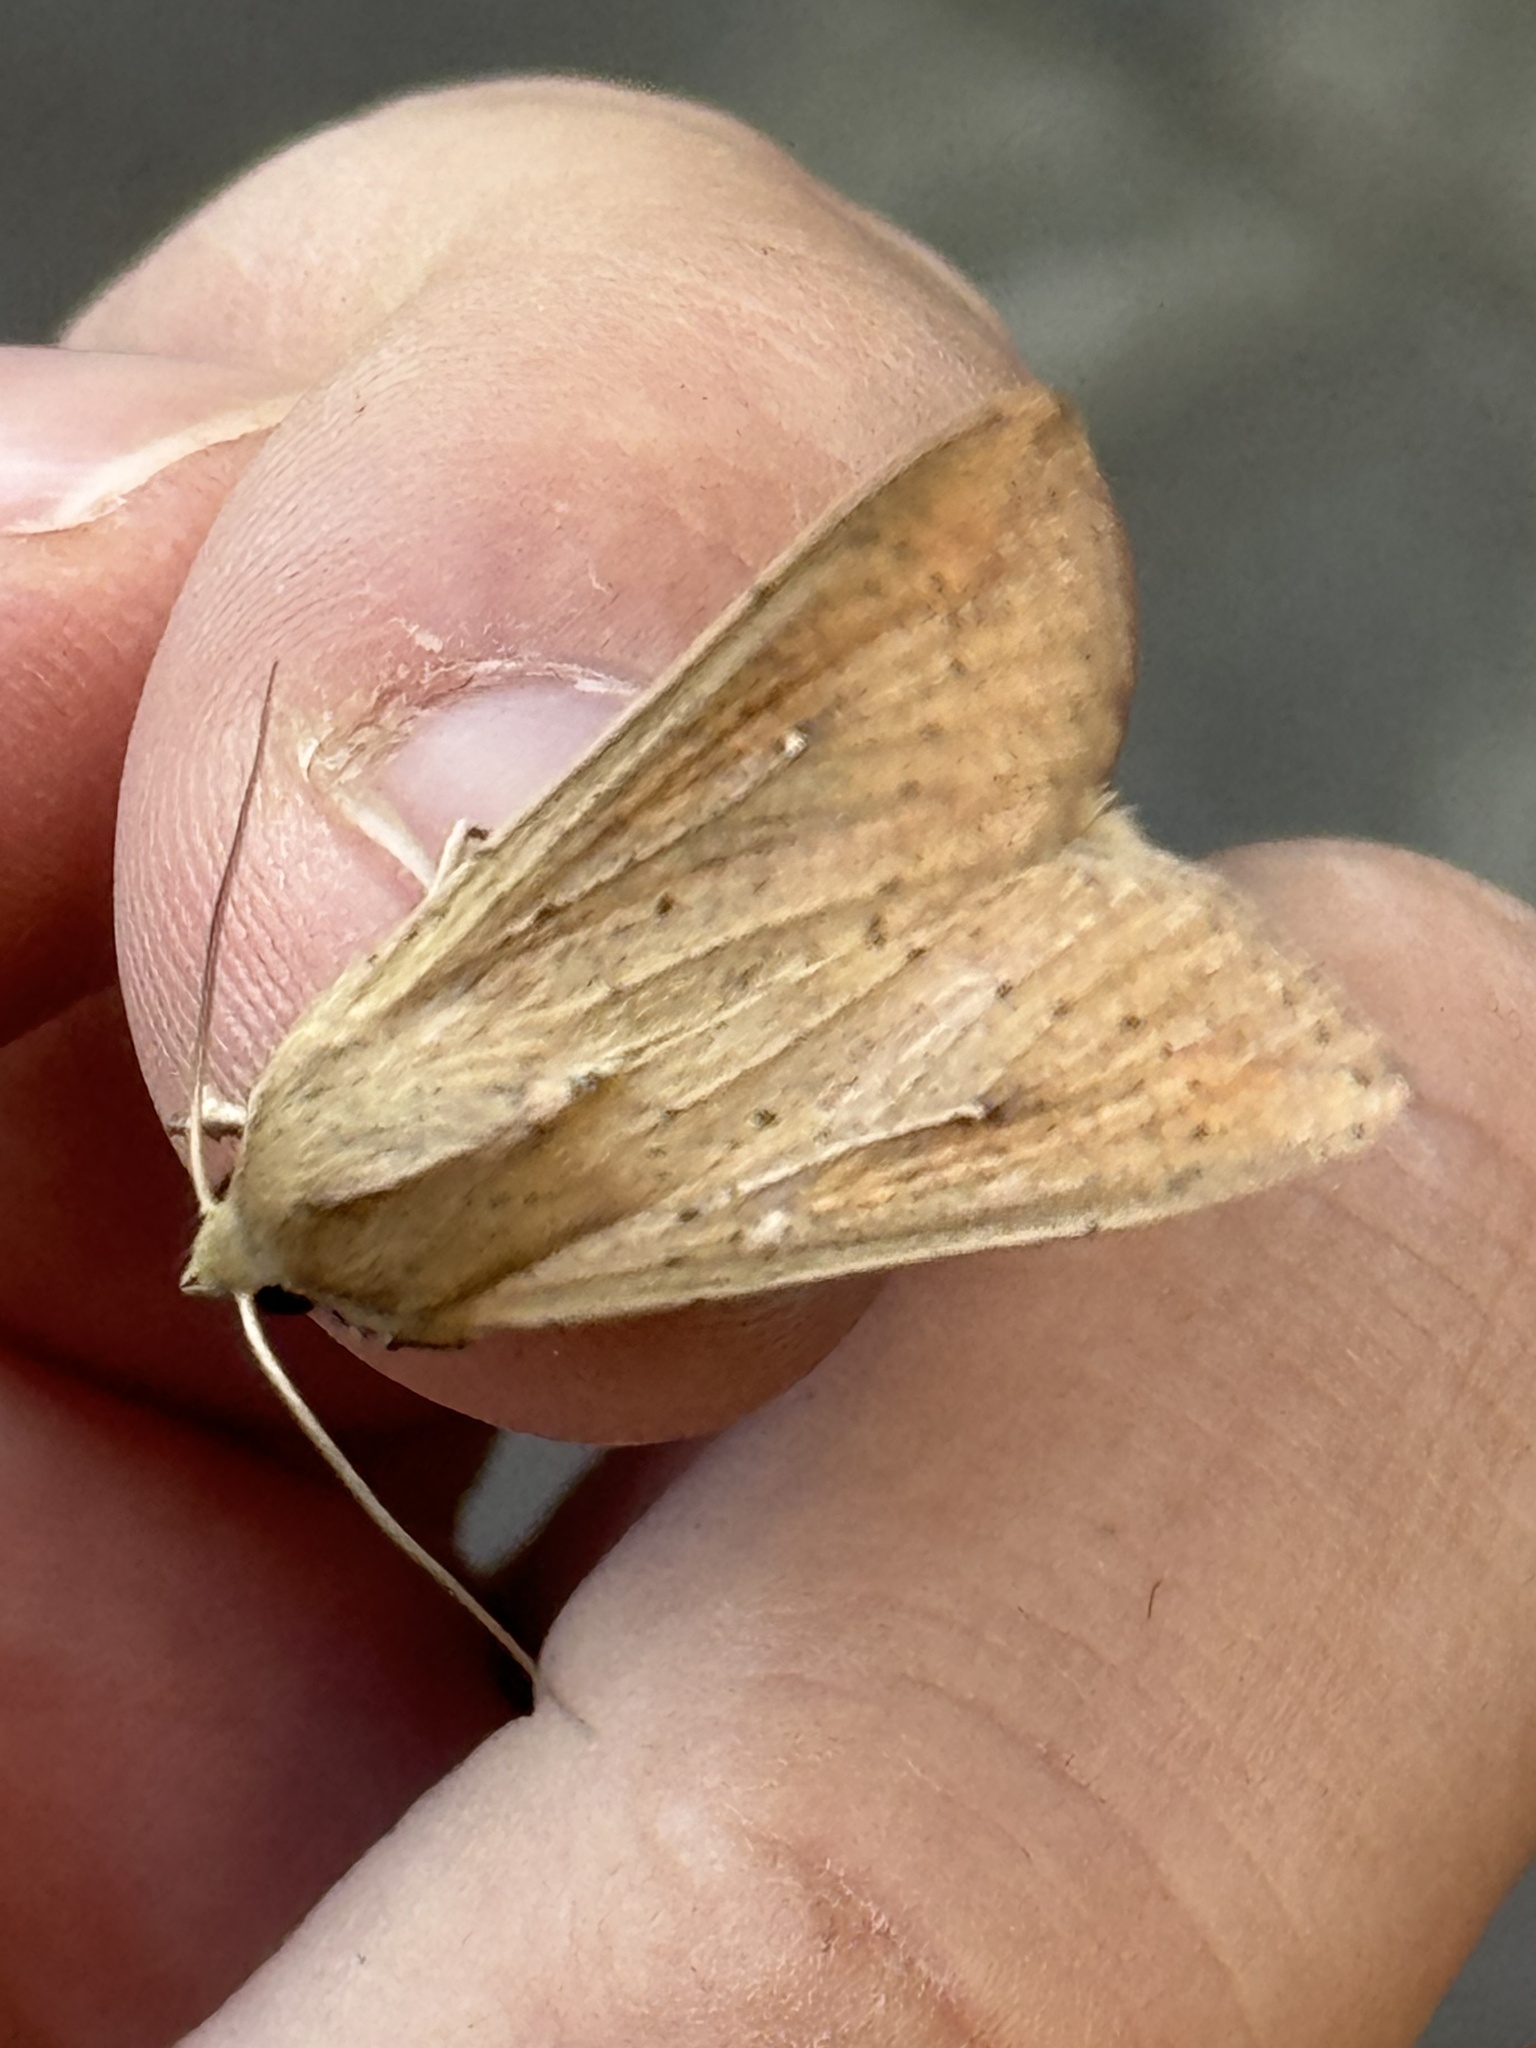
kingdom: Animalia
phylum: Arthropoda
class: Insecta
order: Lepidoptera
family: Noctuidae
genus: Mythimna
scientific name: Mythimna unipuncta
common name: White-speck
